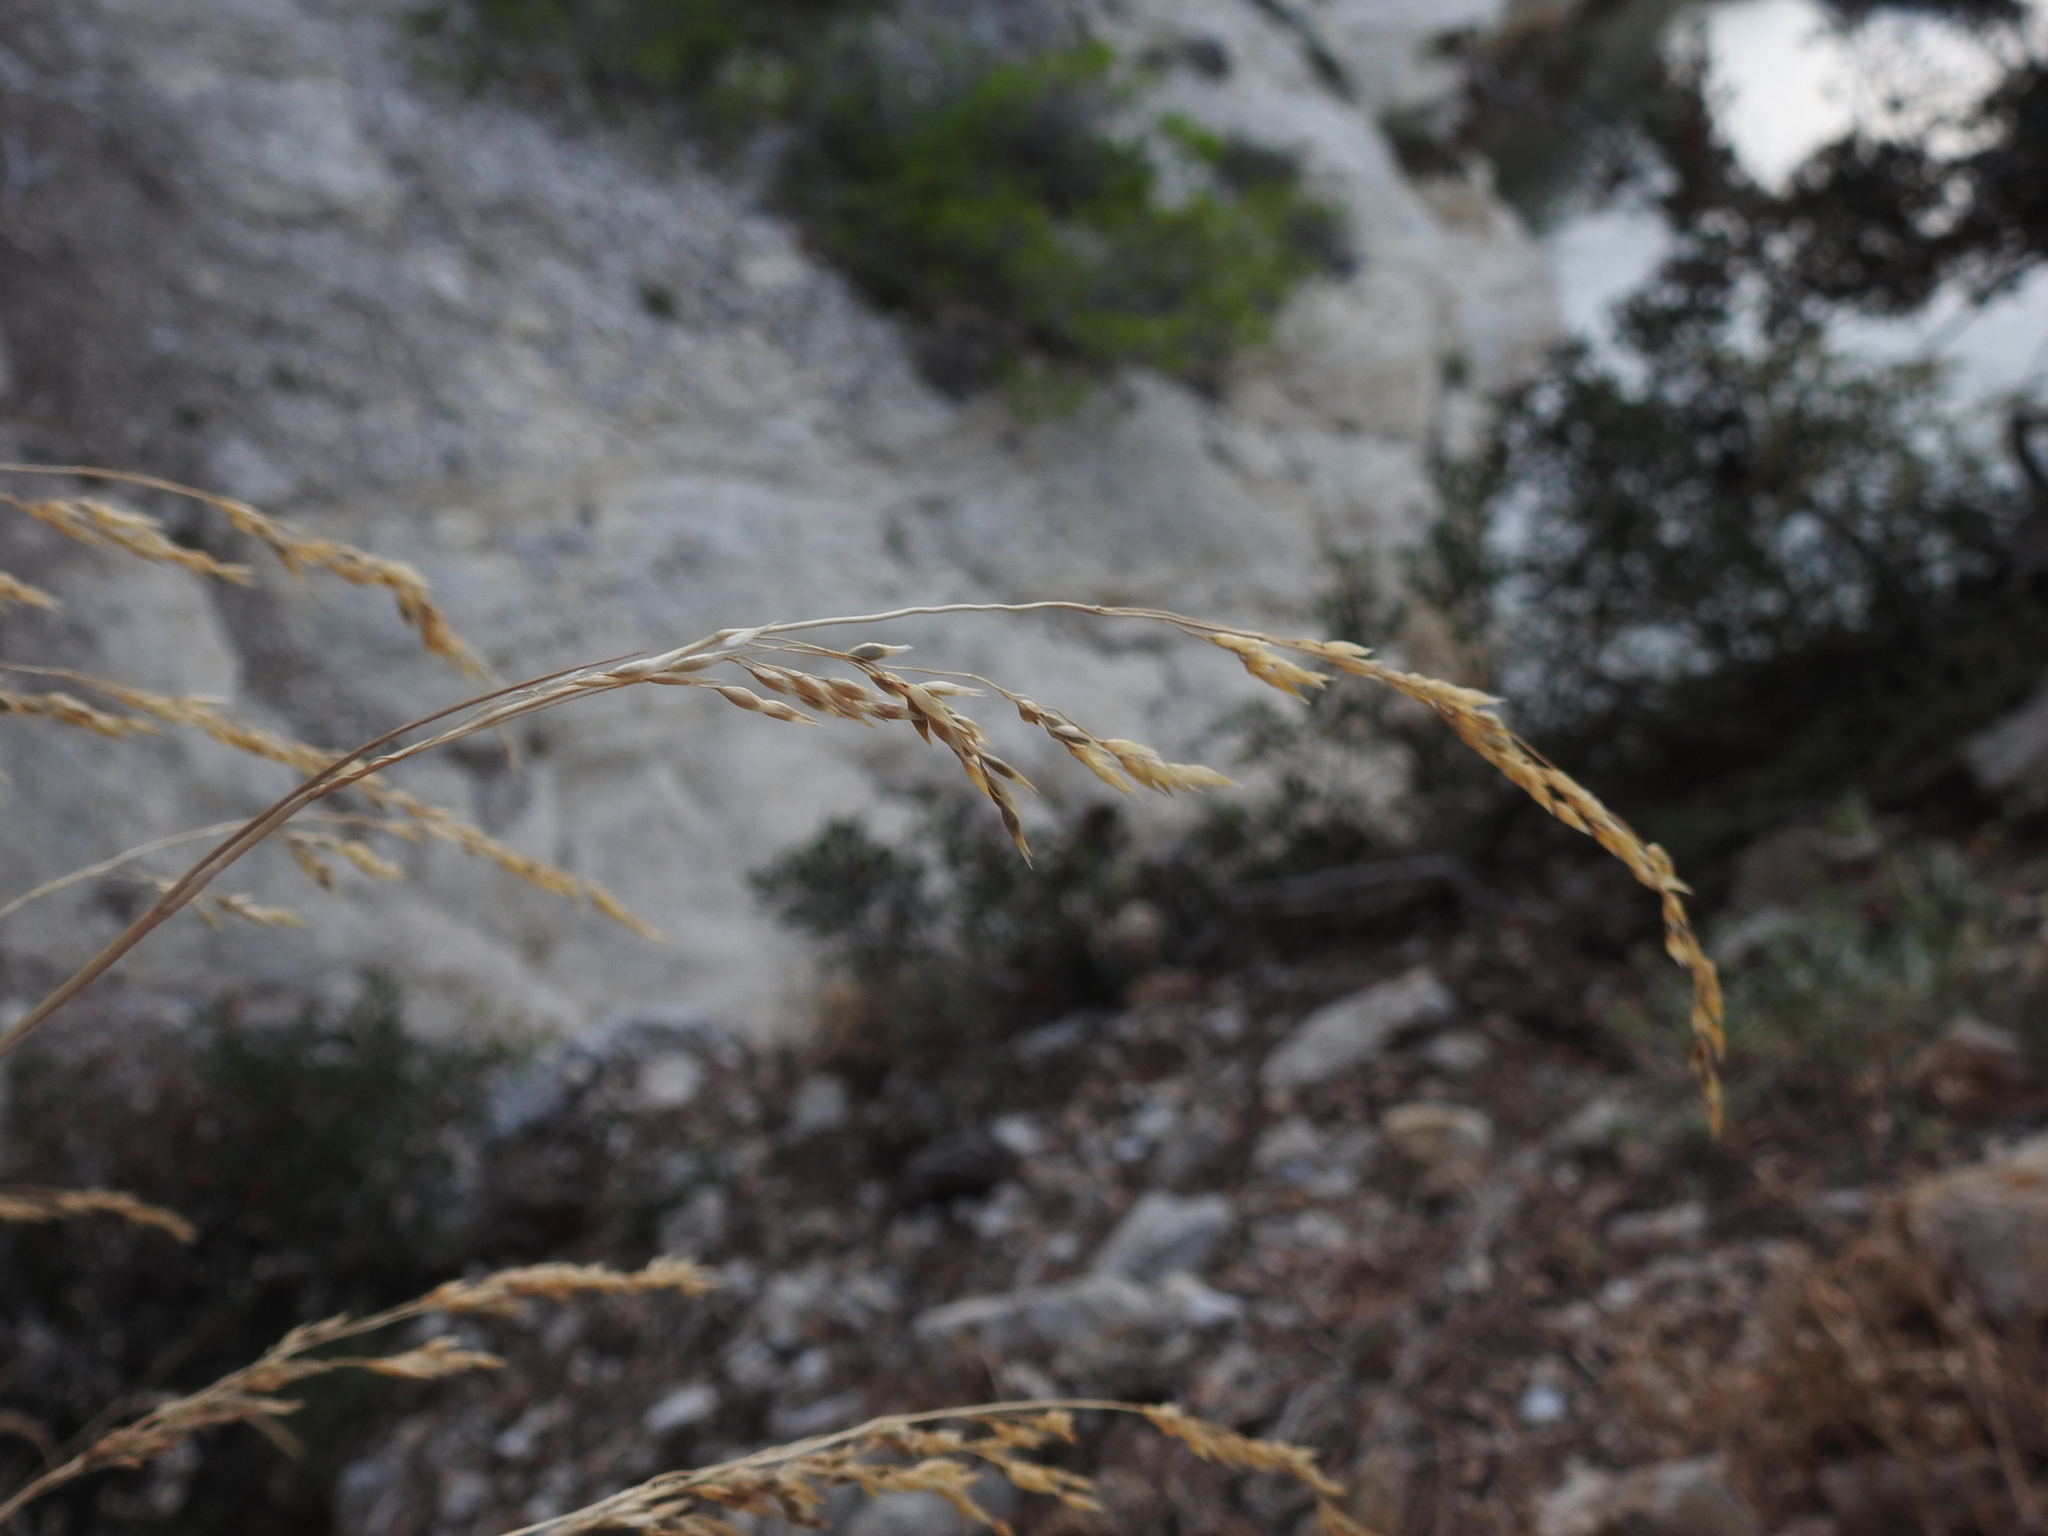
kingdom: Plantae
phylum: Tracheophyta
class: Liliopsida
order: Poales
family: Poaceae
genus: Oryzopsis
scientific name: Oryzopsis coerulescens
